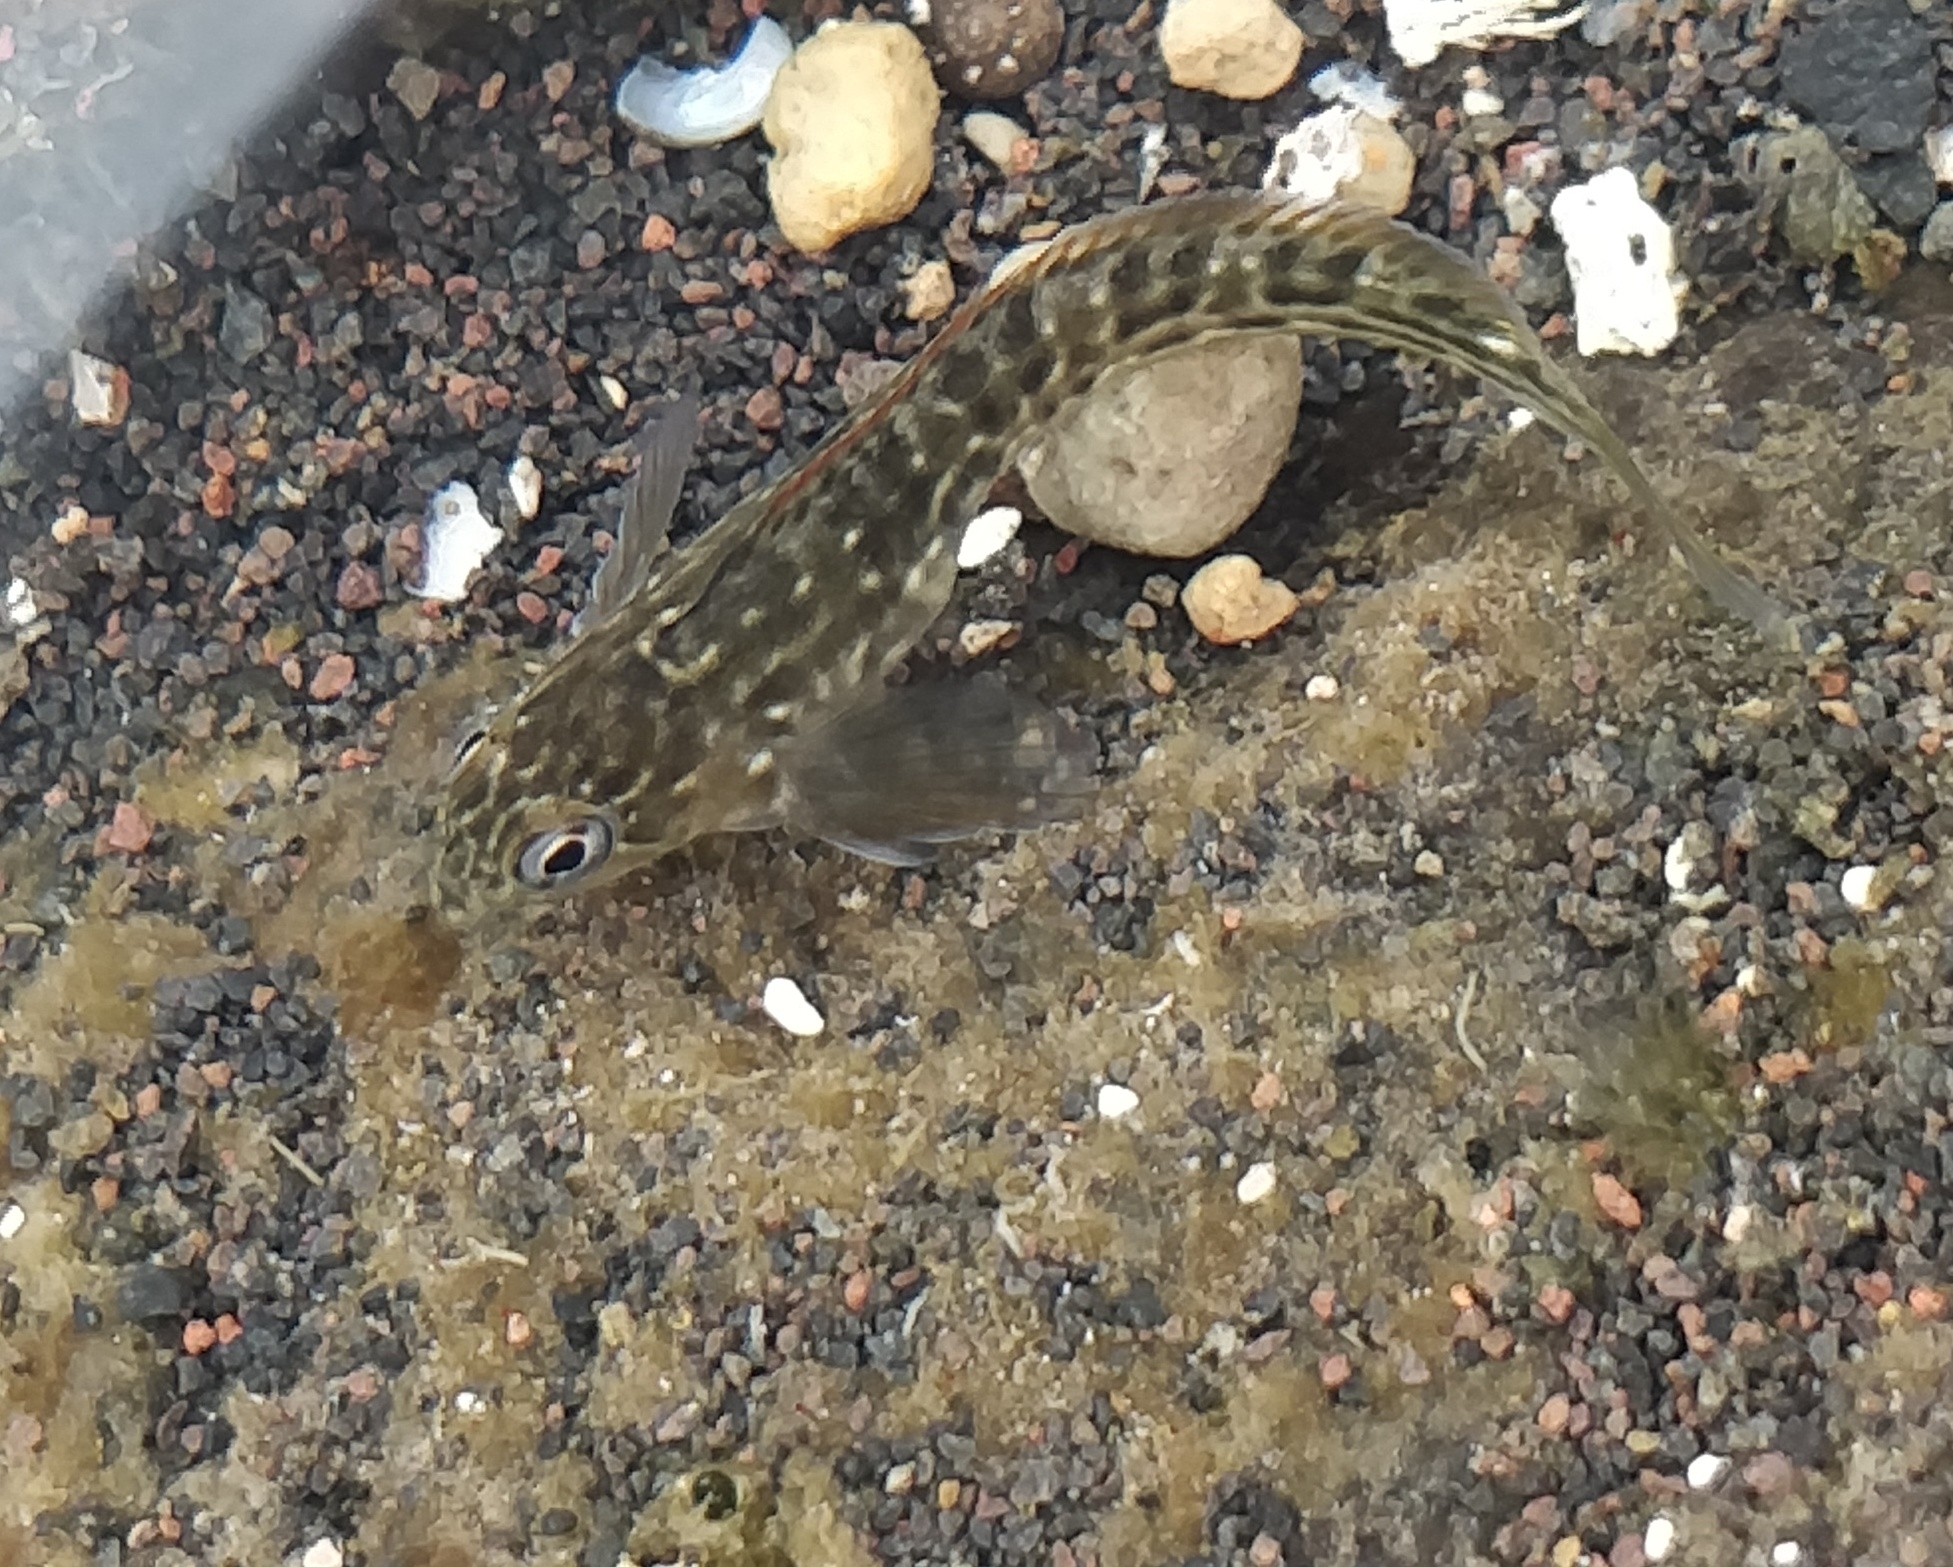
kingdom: Animalia
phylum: Chordata
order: Perciformes
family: Blenniidae
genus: Parablennius
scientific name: Parablennius parvicornis
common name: Rock-pool blenny
